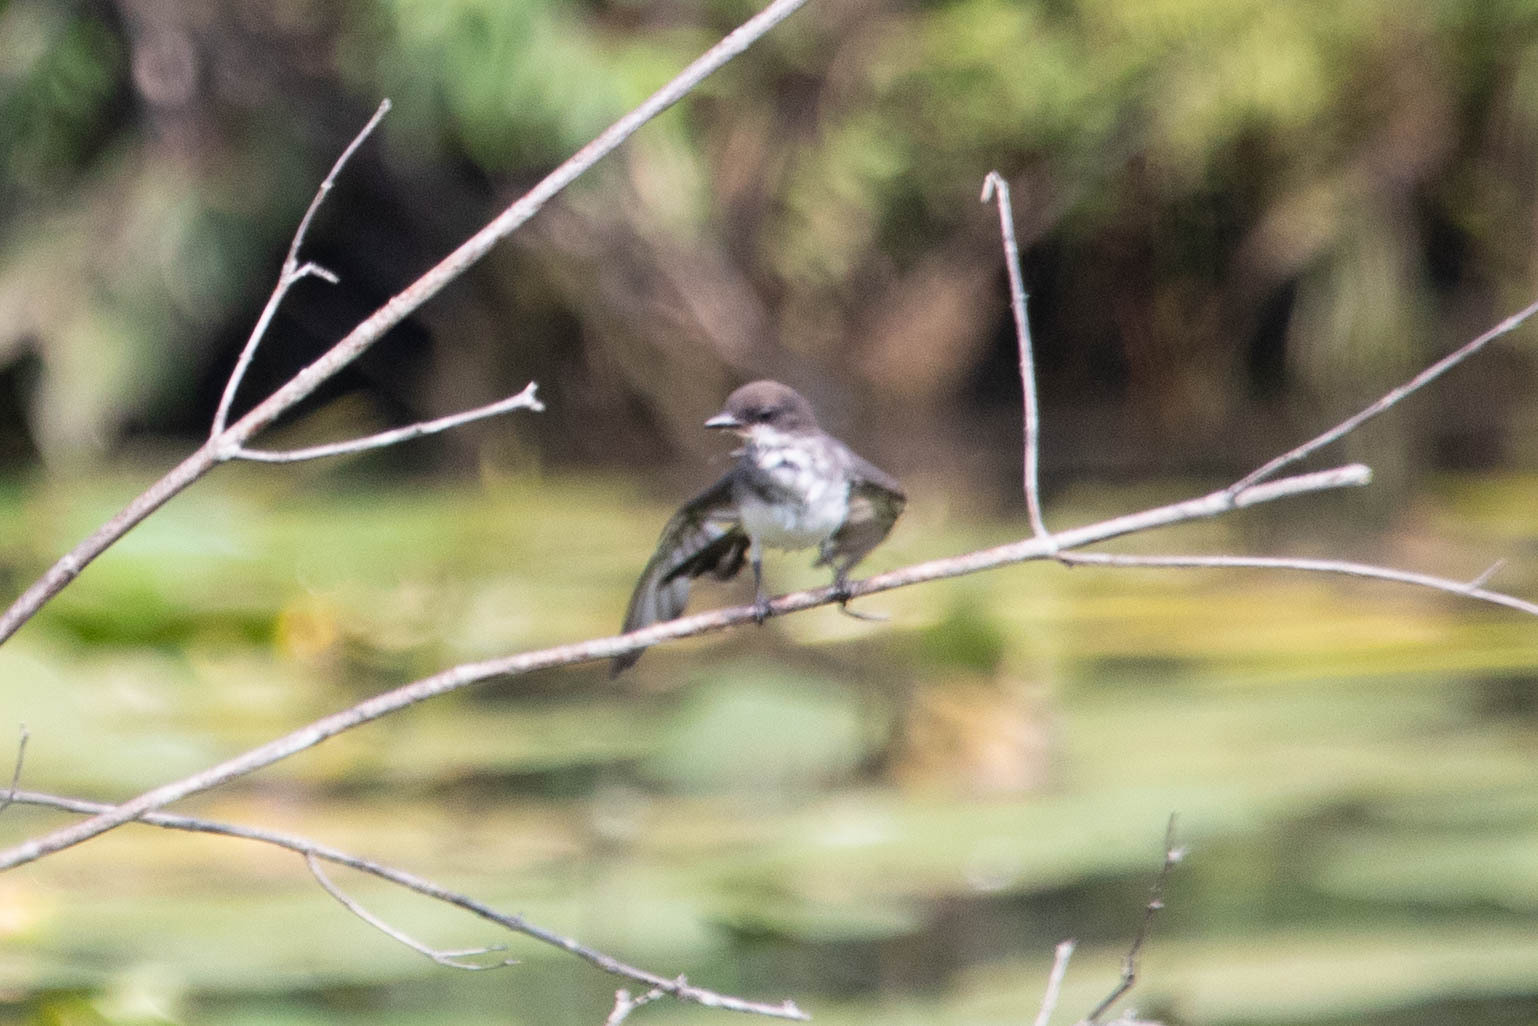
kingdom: Animalia
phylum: Chordata
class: Aves
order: Passeriformes
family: Tyrannidae
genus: Sayornis
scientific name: Sayornis phoebe
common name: Eastern phoebe
